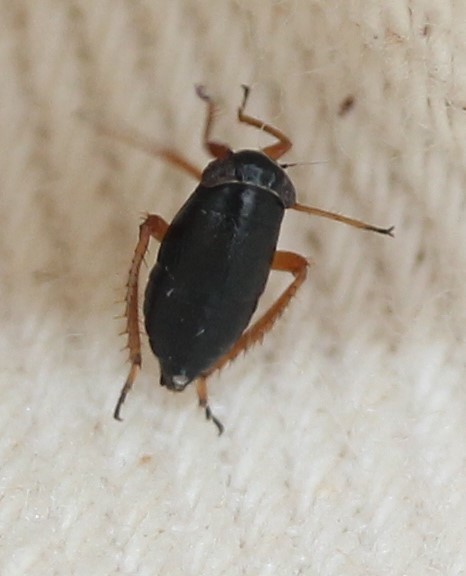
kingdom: Animalia
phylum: Arthropoda
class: Insecta
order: Hemiptera
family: Cicadellidae
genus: Driotura
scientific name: Driotura gammaroides
